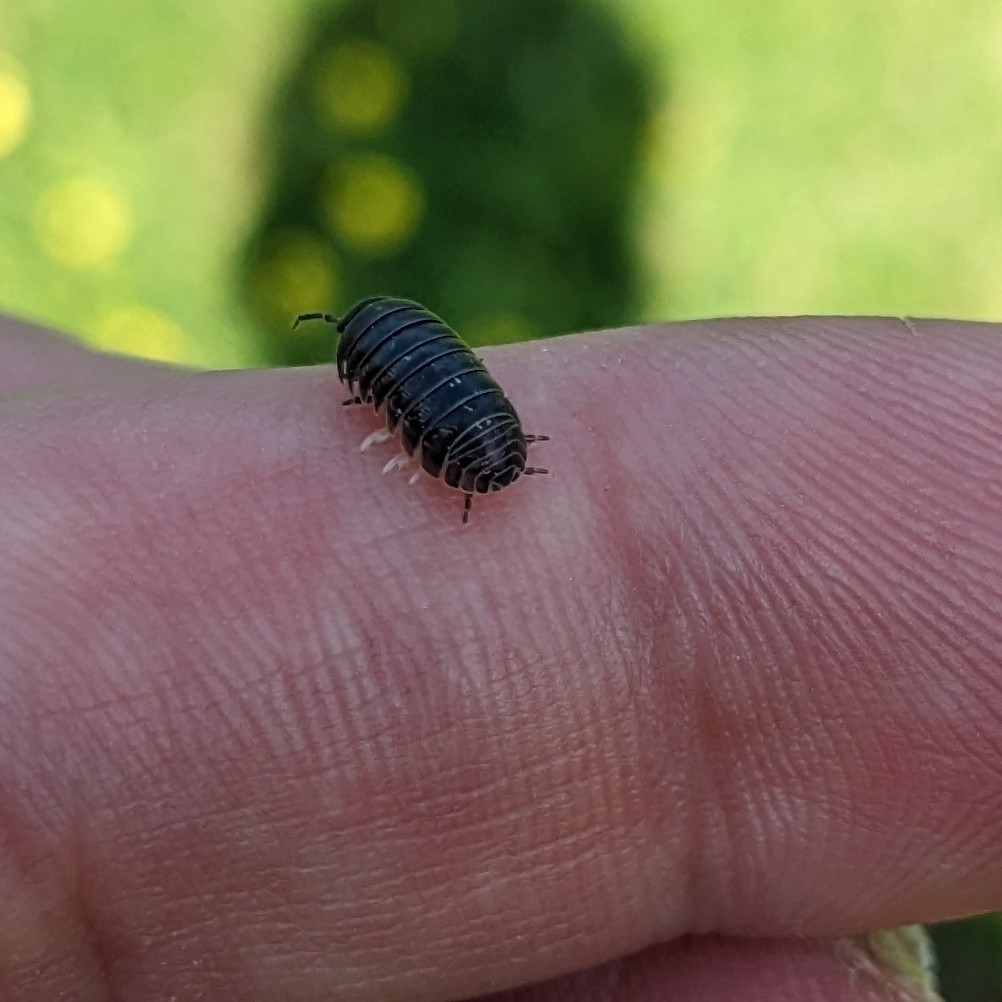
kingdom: Animalia
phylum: Arthropoda
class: Malacostraca
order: Isopoda
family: Armadillidiidae
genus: Armadillidium
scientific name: Armadillidium vulgare
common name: Common pill woodlouse
